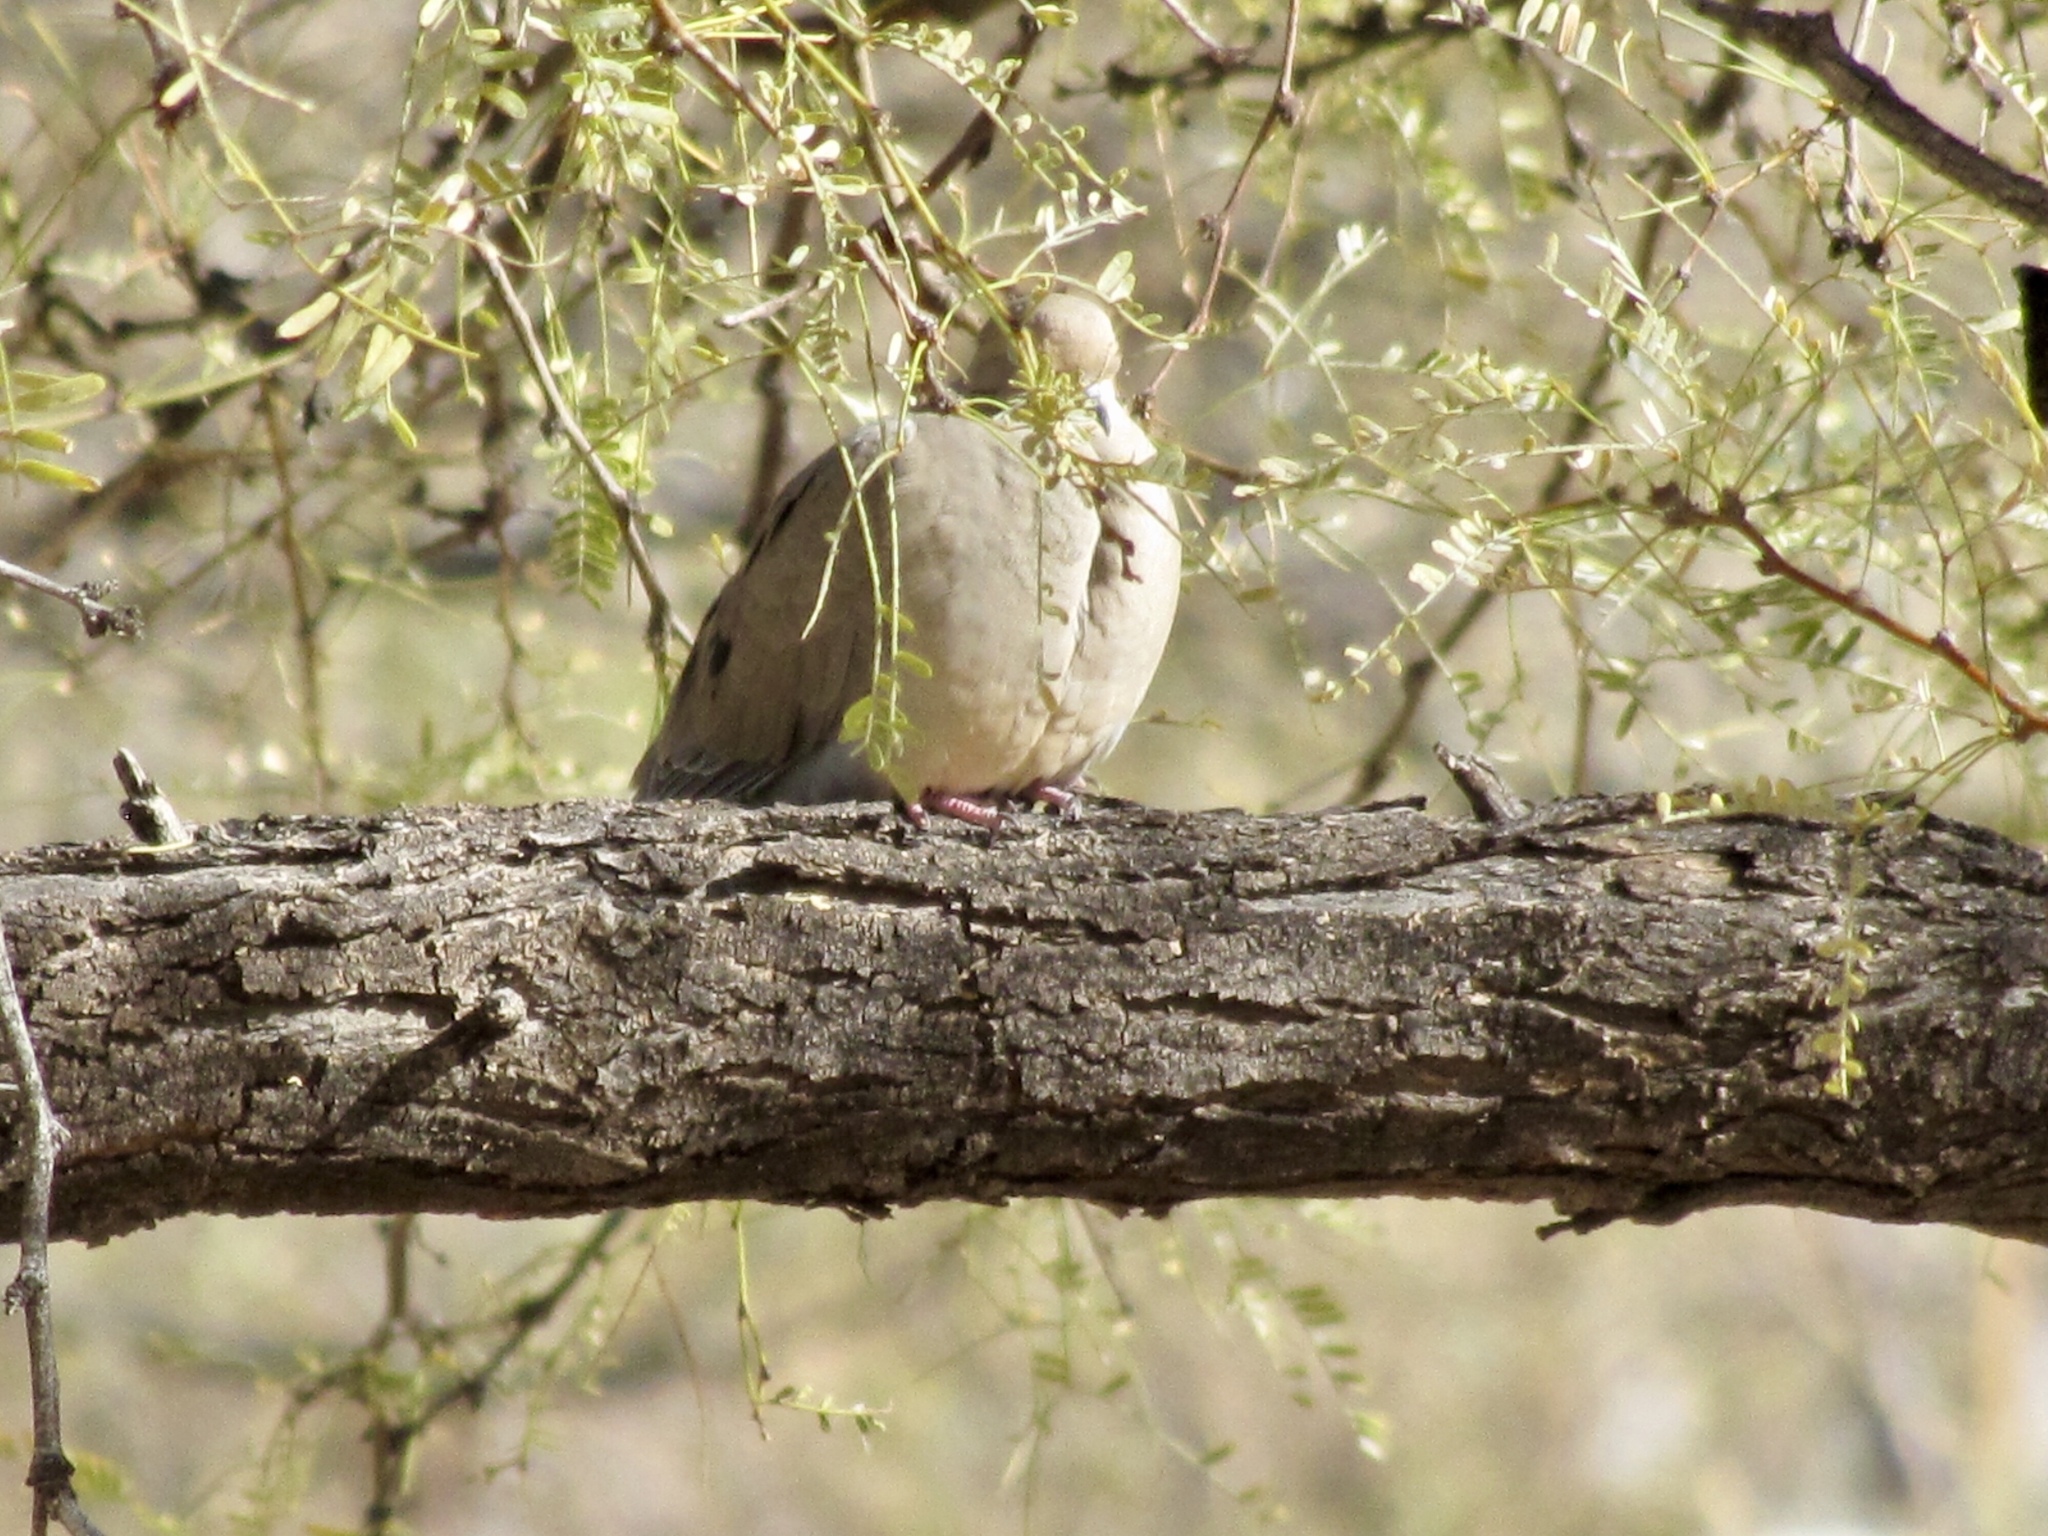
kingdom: Animalia
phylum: Chordata
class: Aves
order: Columbiformes
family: Columbidae
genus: Zenaida
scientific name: Zenaida macroura
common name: Mourning dove
